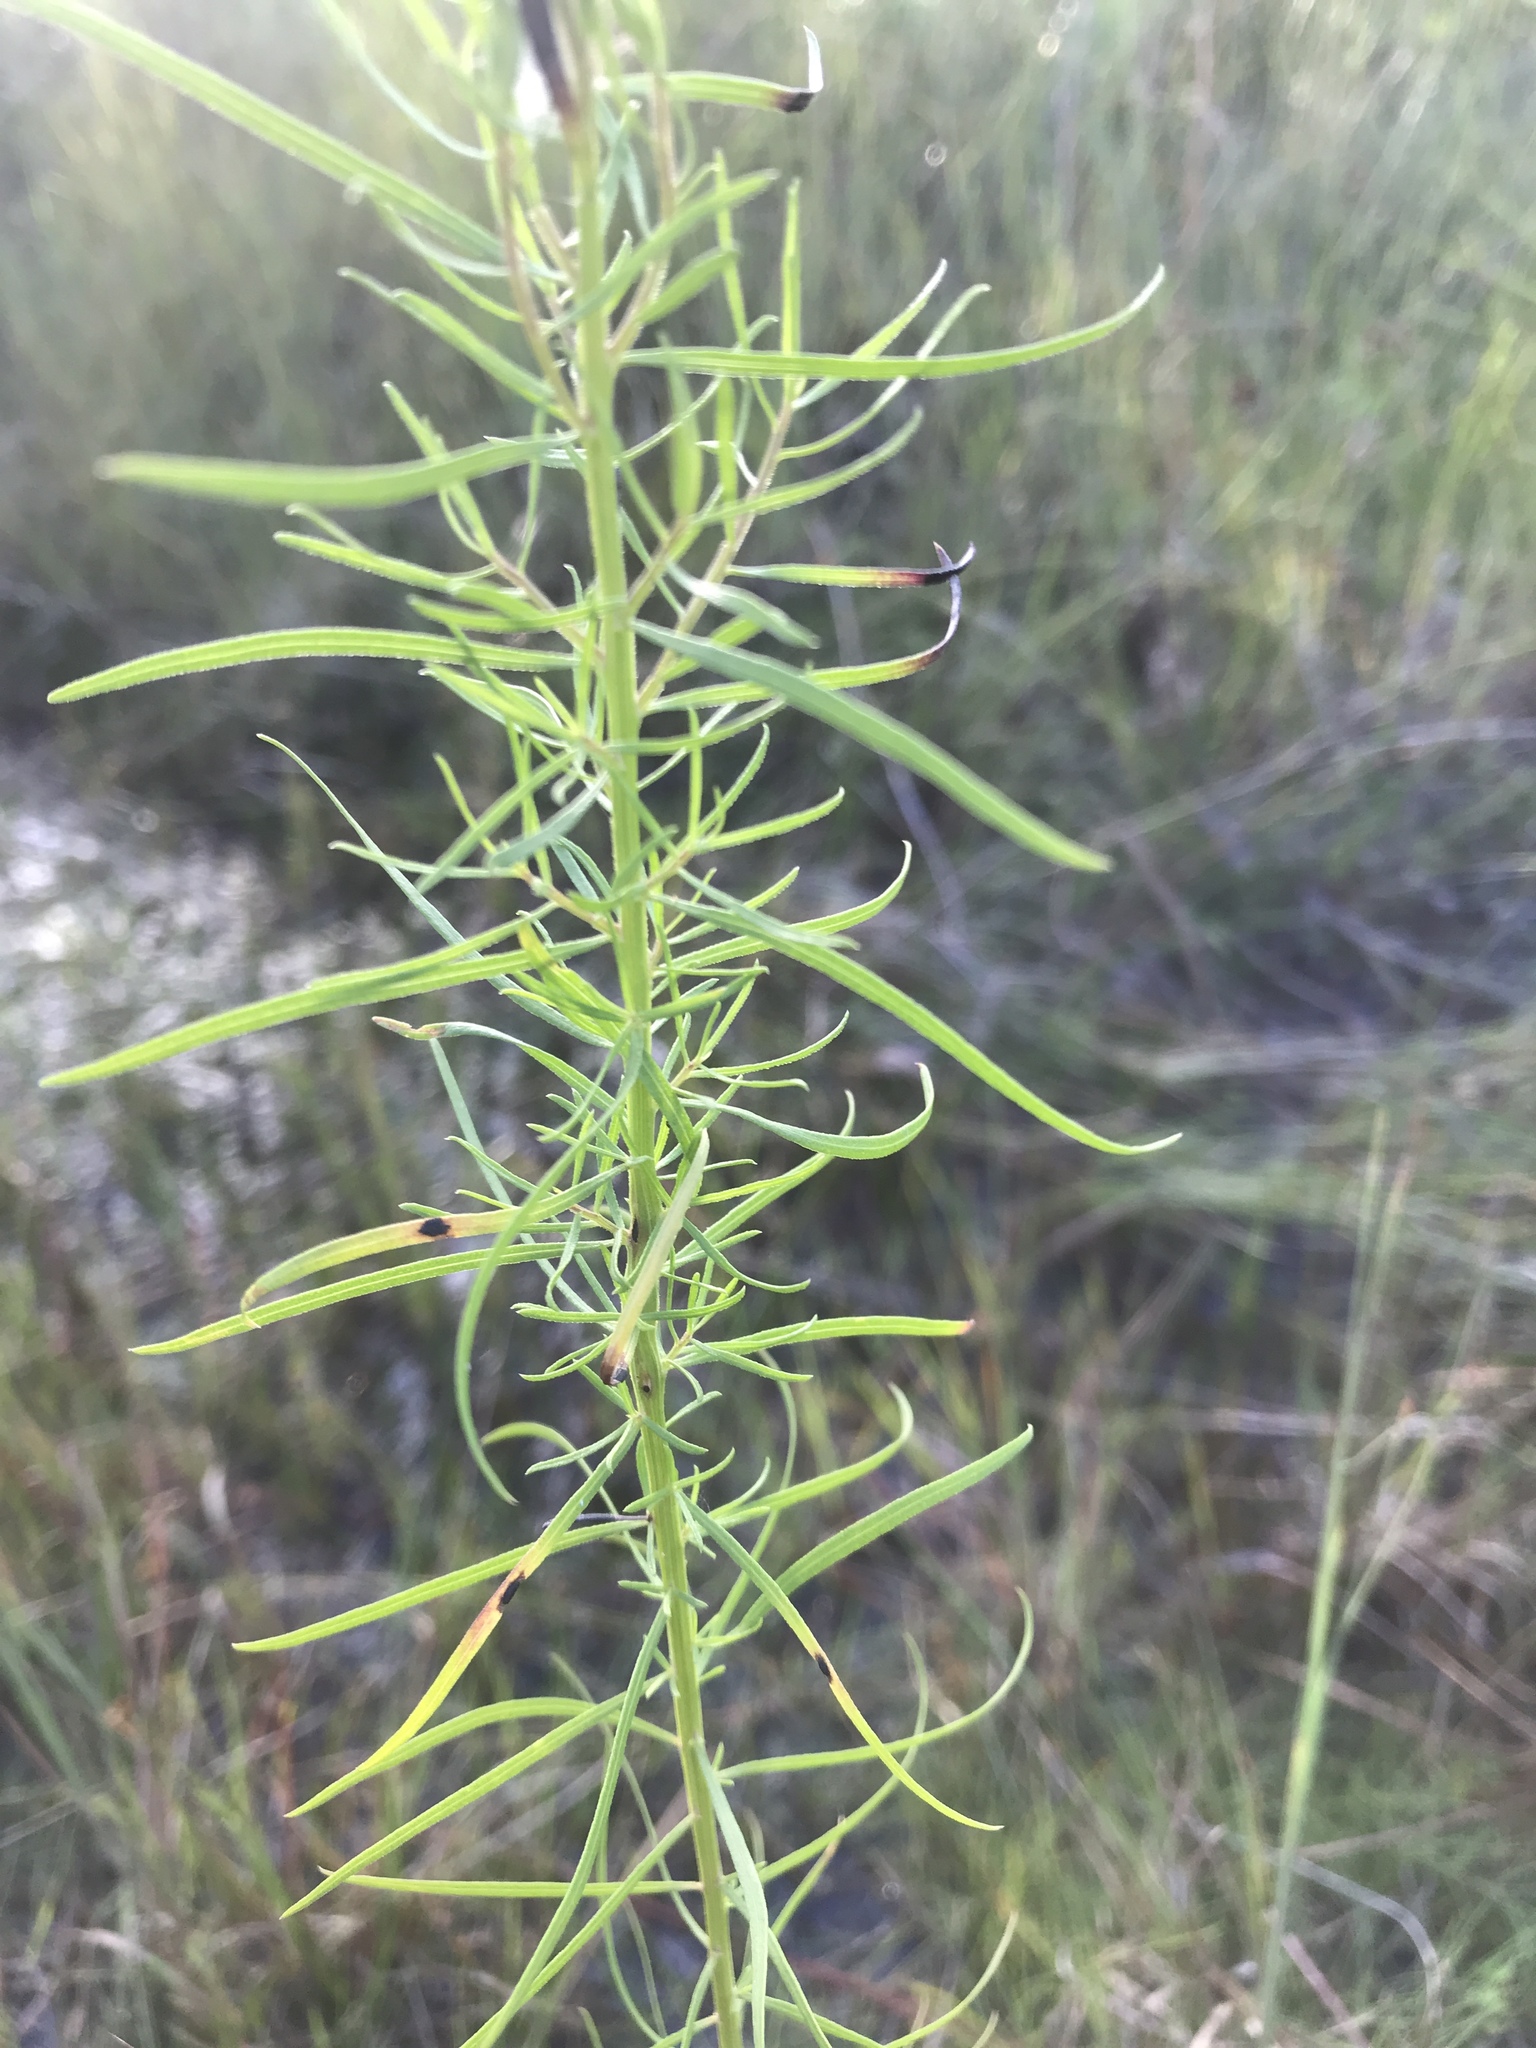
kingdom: Plantae
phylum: Tracheophyta
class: Magnoliopsida
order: Asterales
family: Asteraceae
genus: Euthamia
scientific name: Euthamia caroliniana
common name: Coastal plain goldentop
